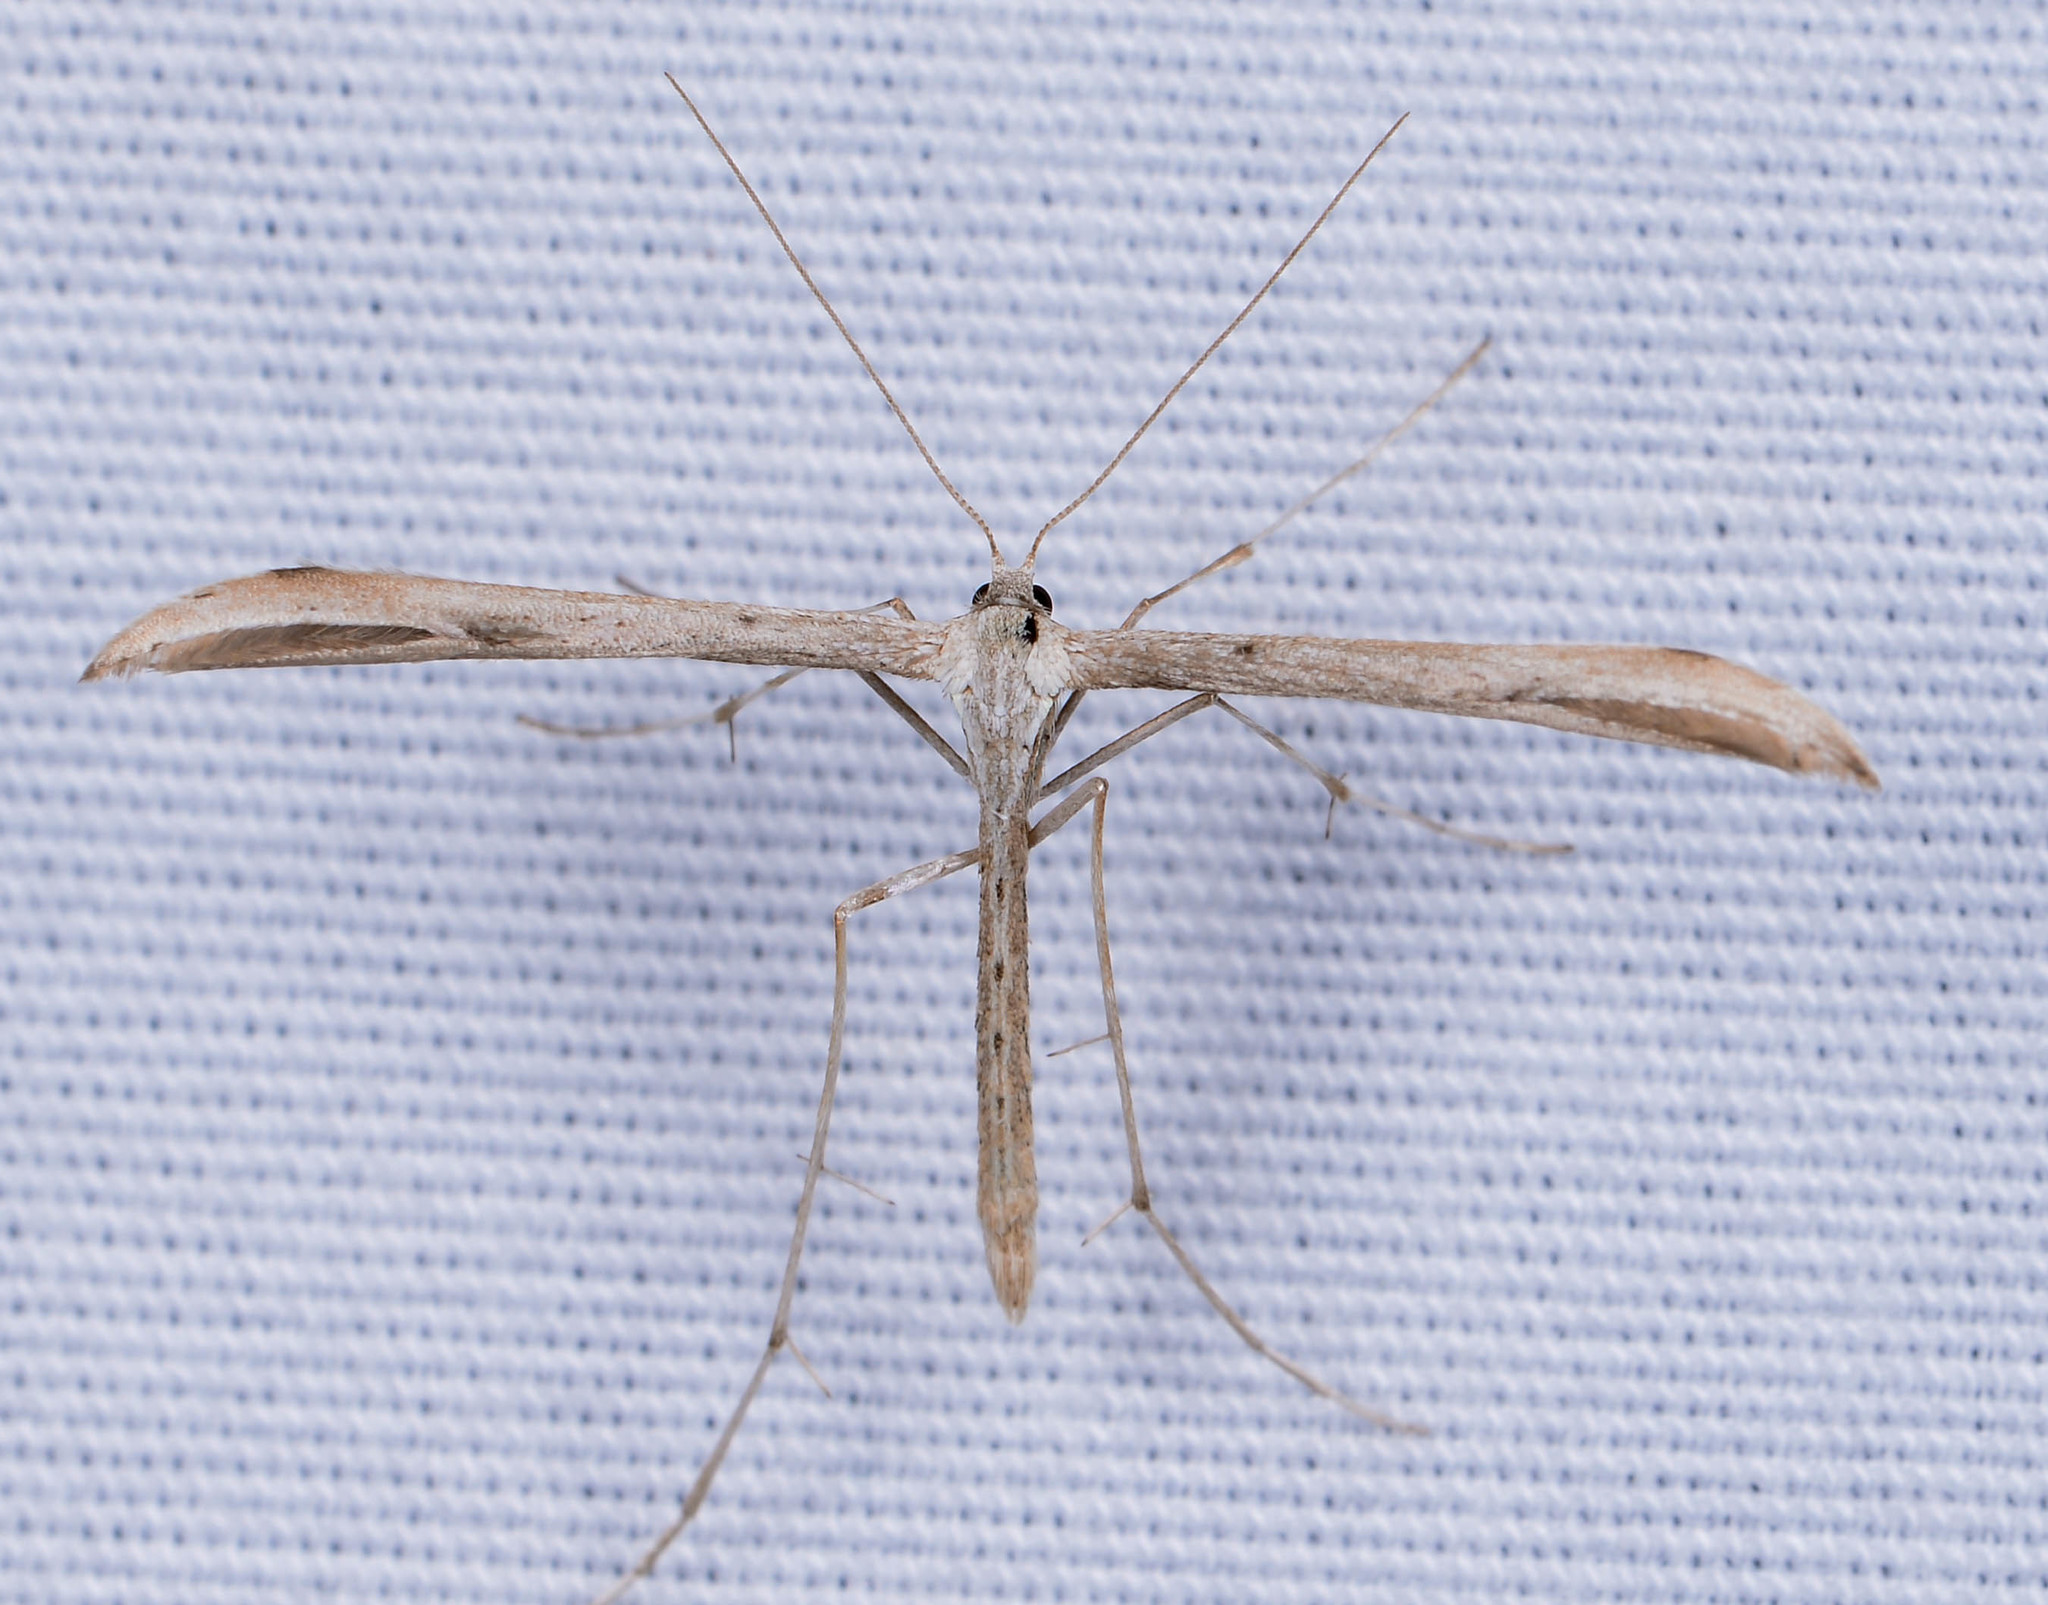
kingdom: Animalia
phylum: Arthropoda
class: Insecta
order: Lepidoptera
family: Pterophoridae
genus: Emmelina
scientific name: Emmelina monodactyla
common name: Common plume
